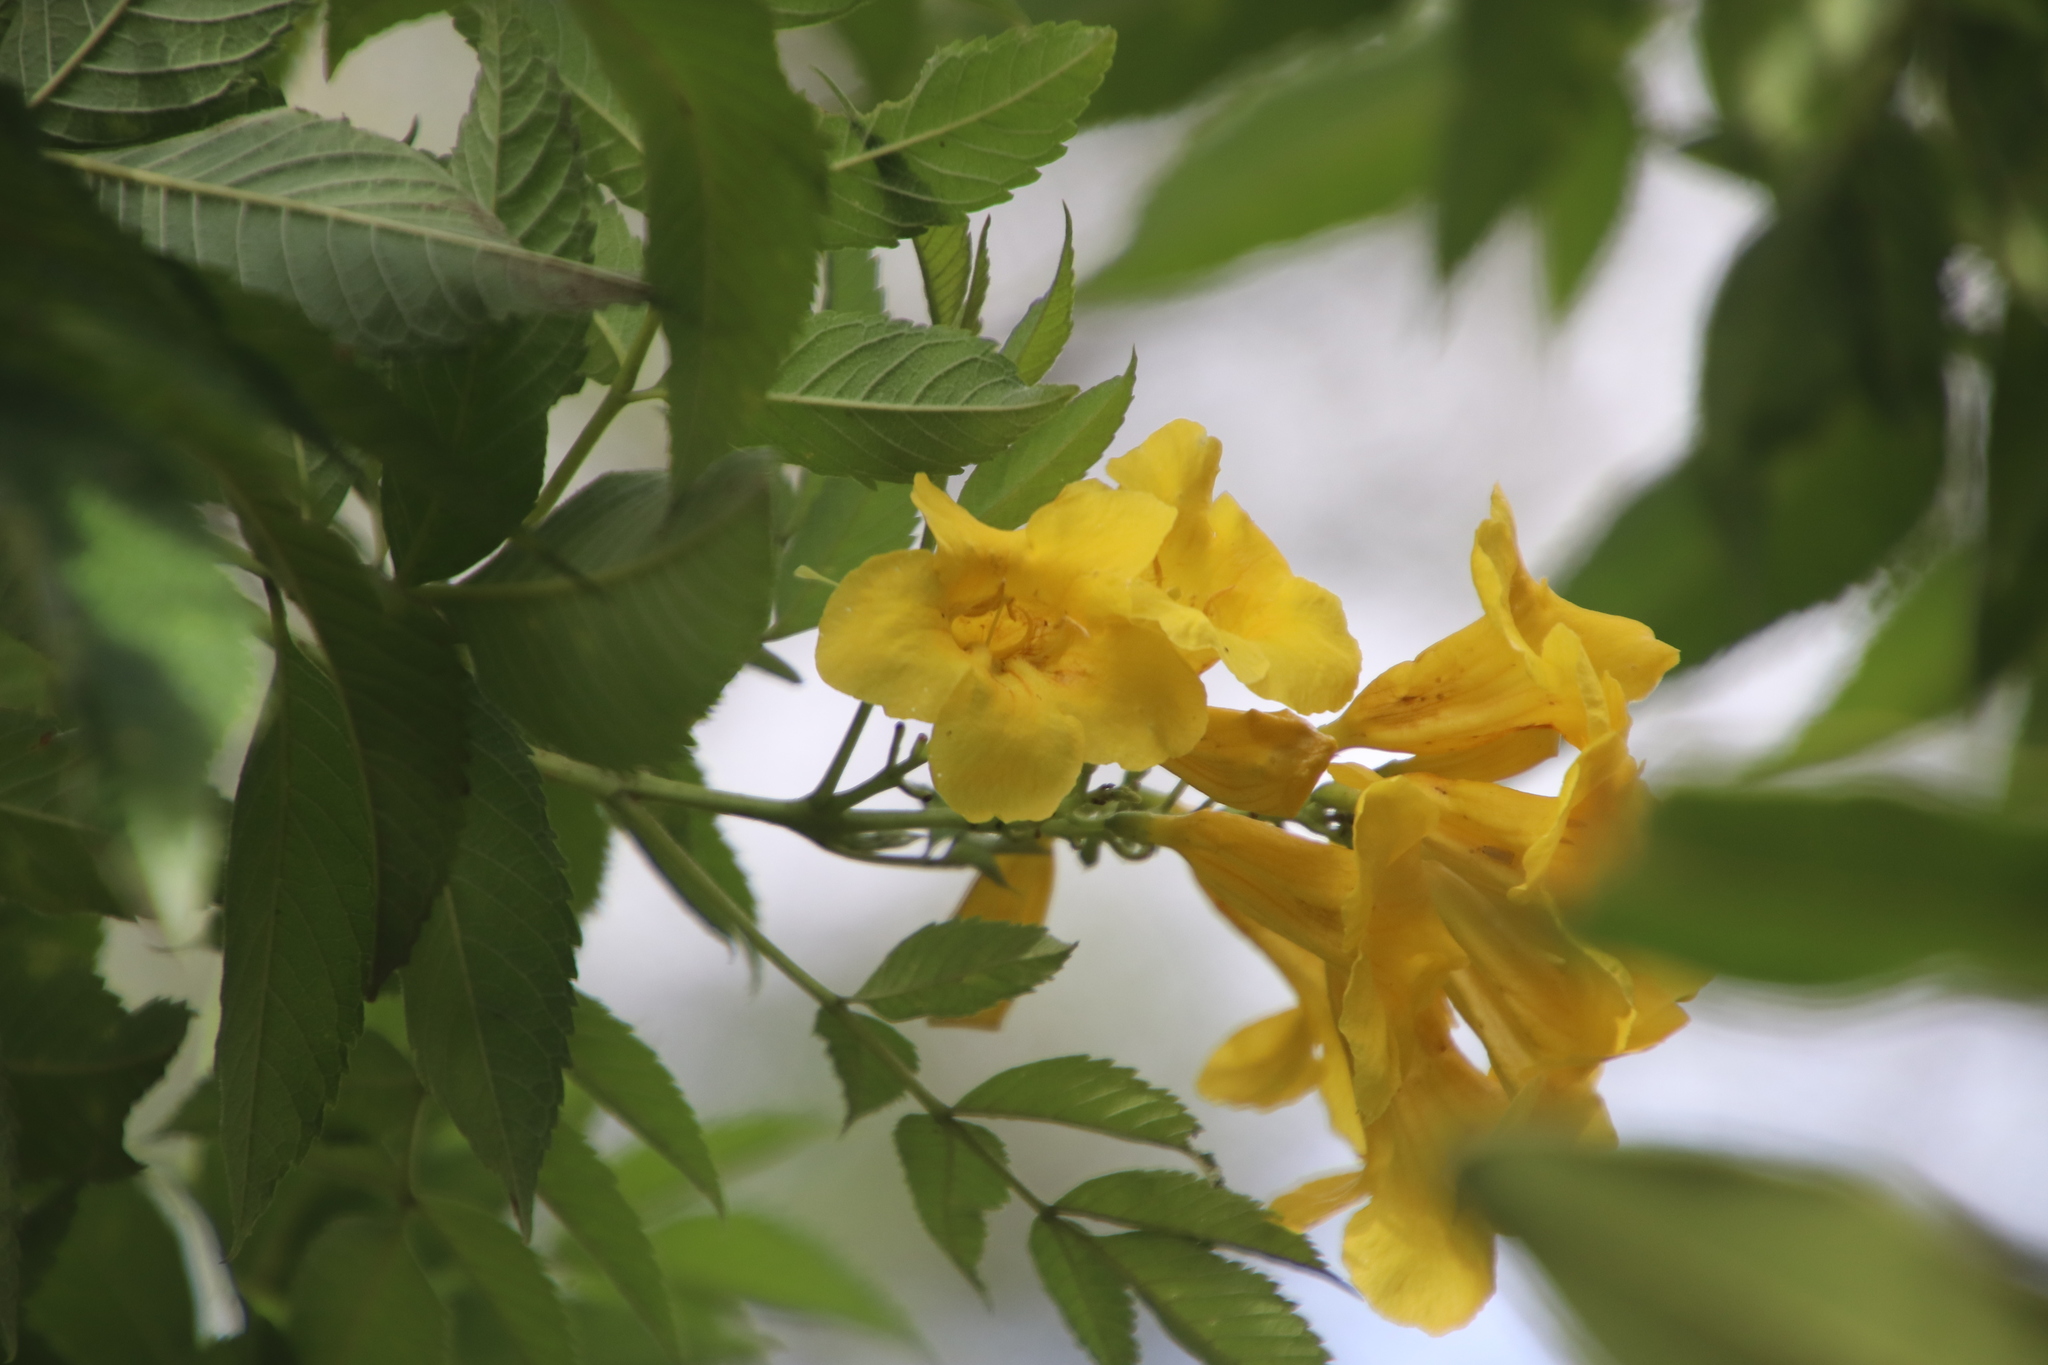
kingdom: Plantae
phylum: Tracheophyta
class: Magnoliopsida
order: Lamiales
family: Bignoniaceae
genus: Tecoma
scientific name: Tecoma stans
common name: Yellow trumpetbush
